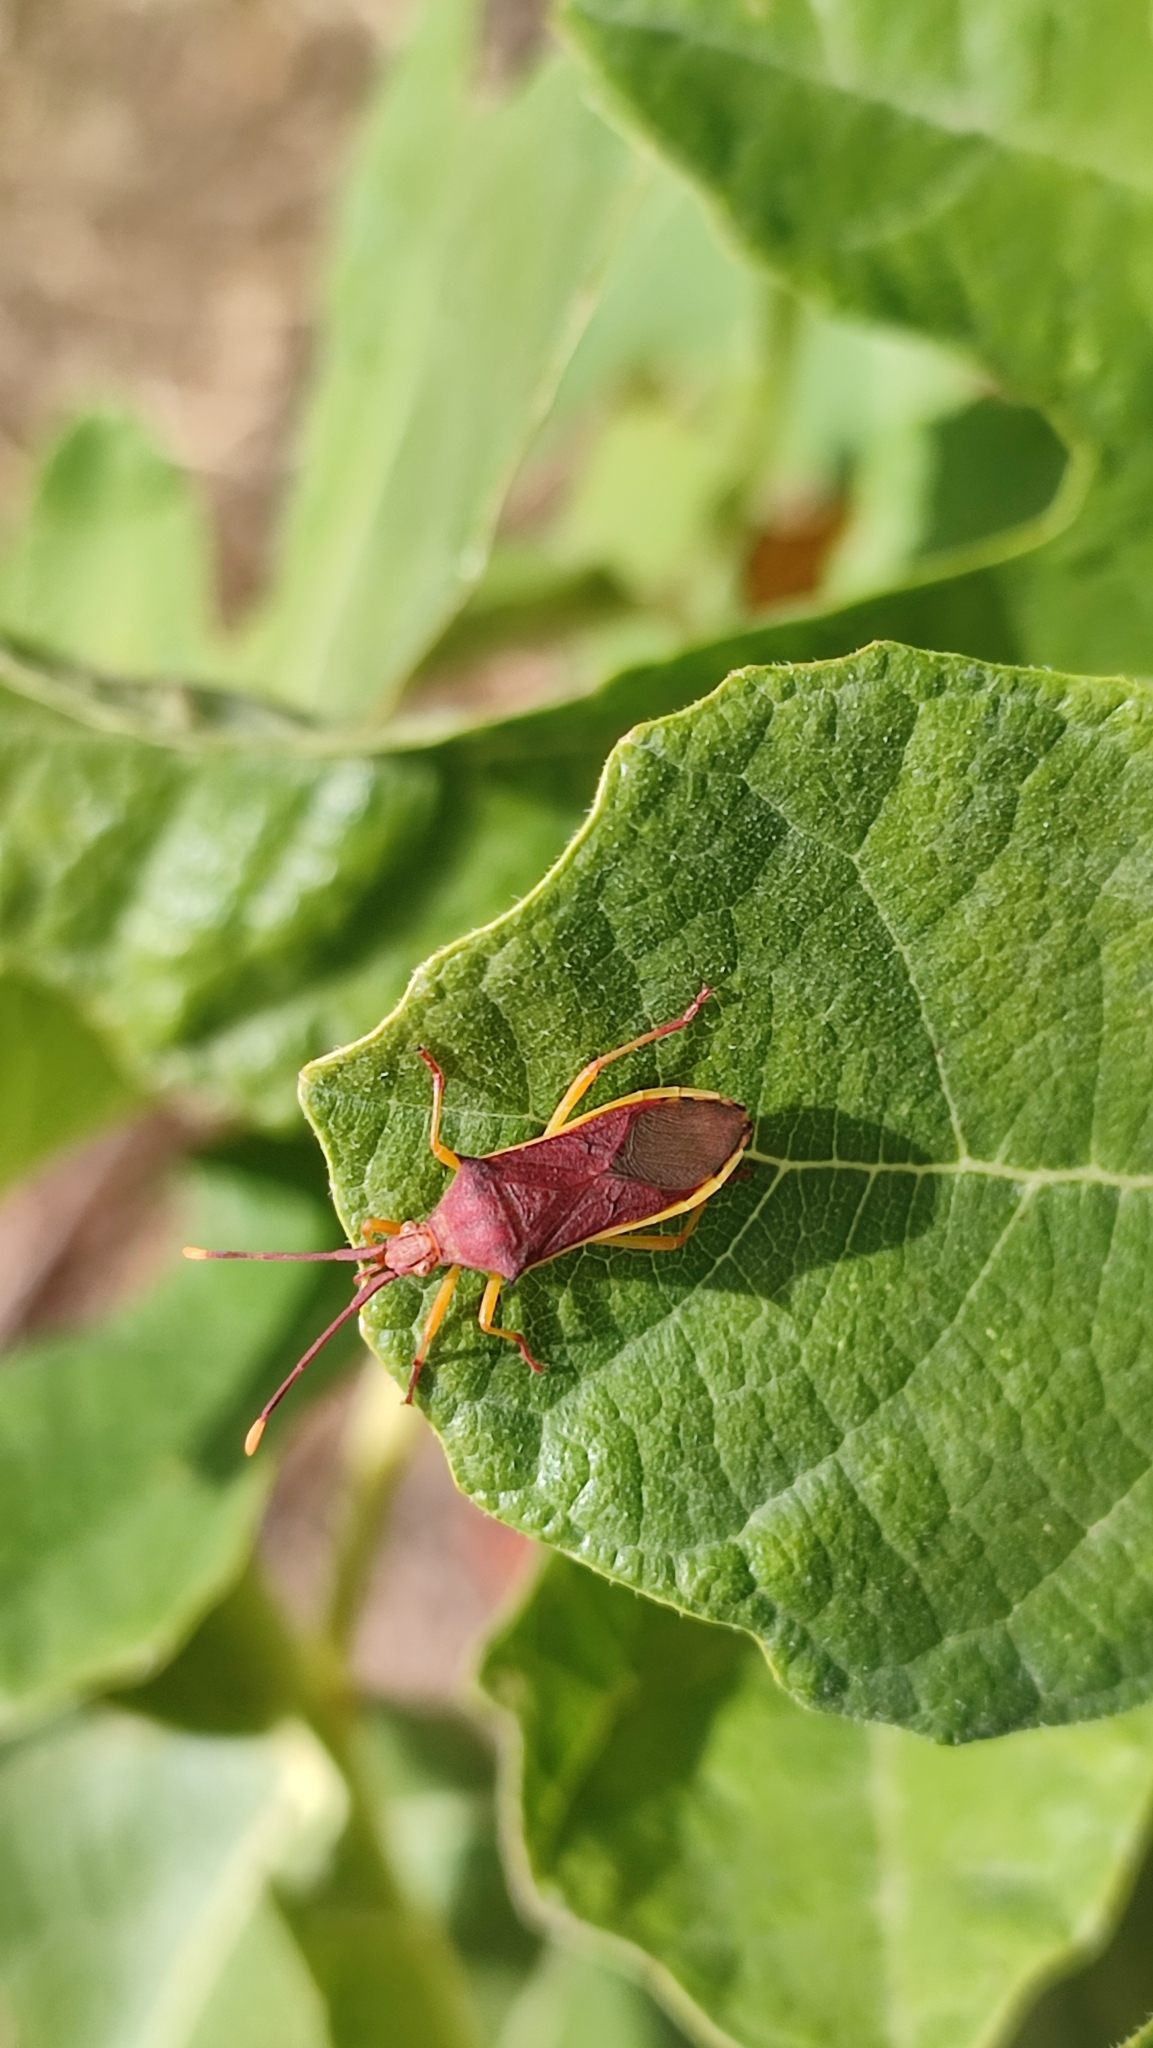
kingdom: Animalia
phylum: Arthropoda
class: Insecta
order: Hemiptera
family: Coreidae
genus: Plinachtus
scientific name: Plinachtus imitator
